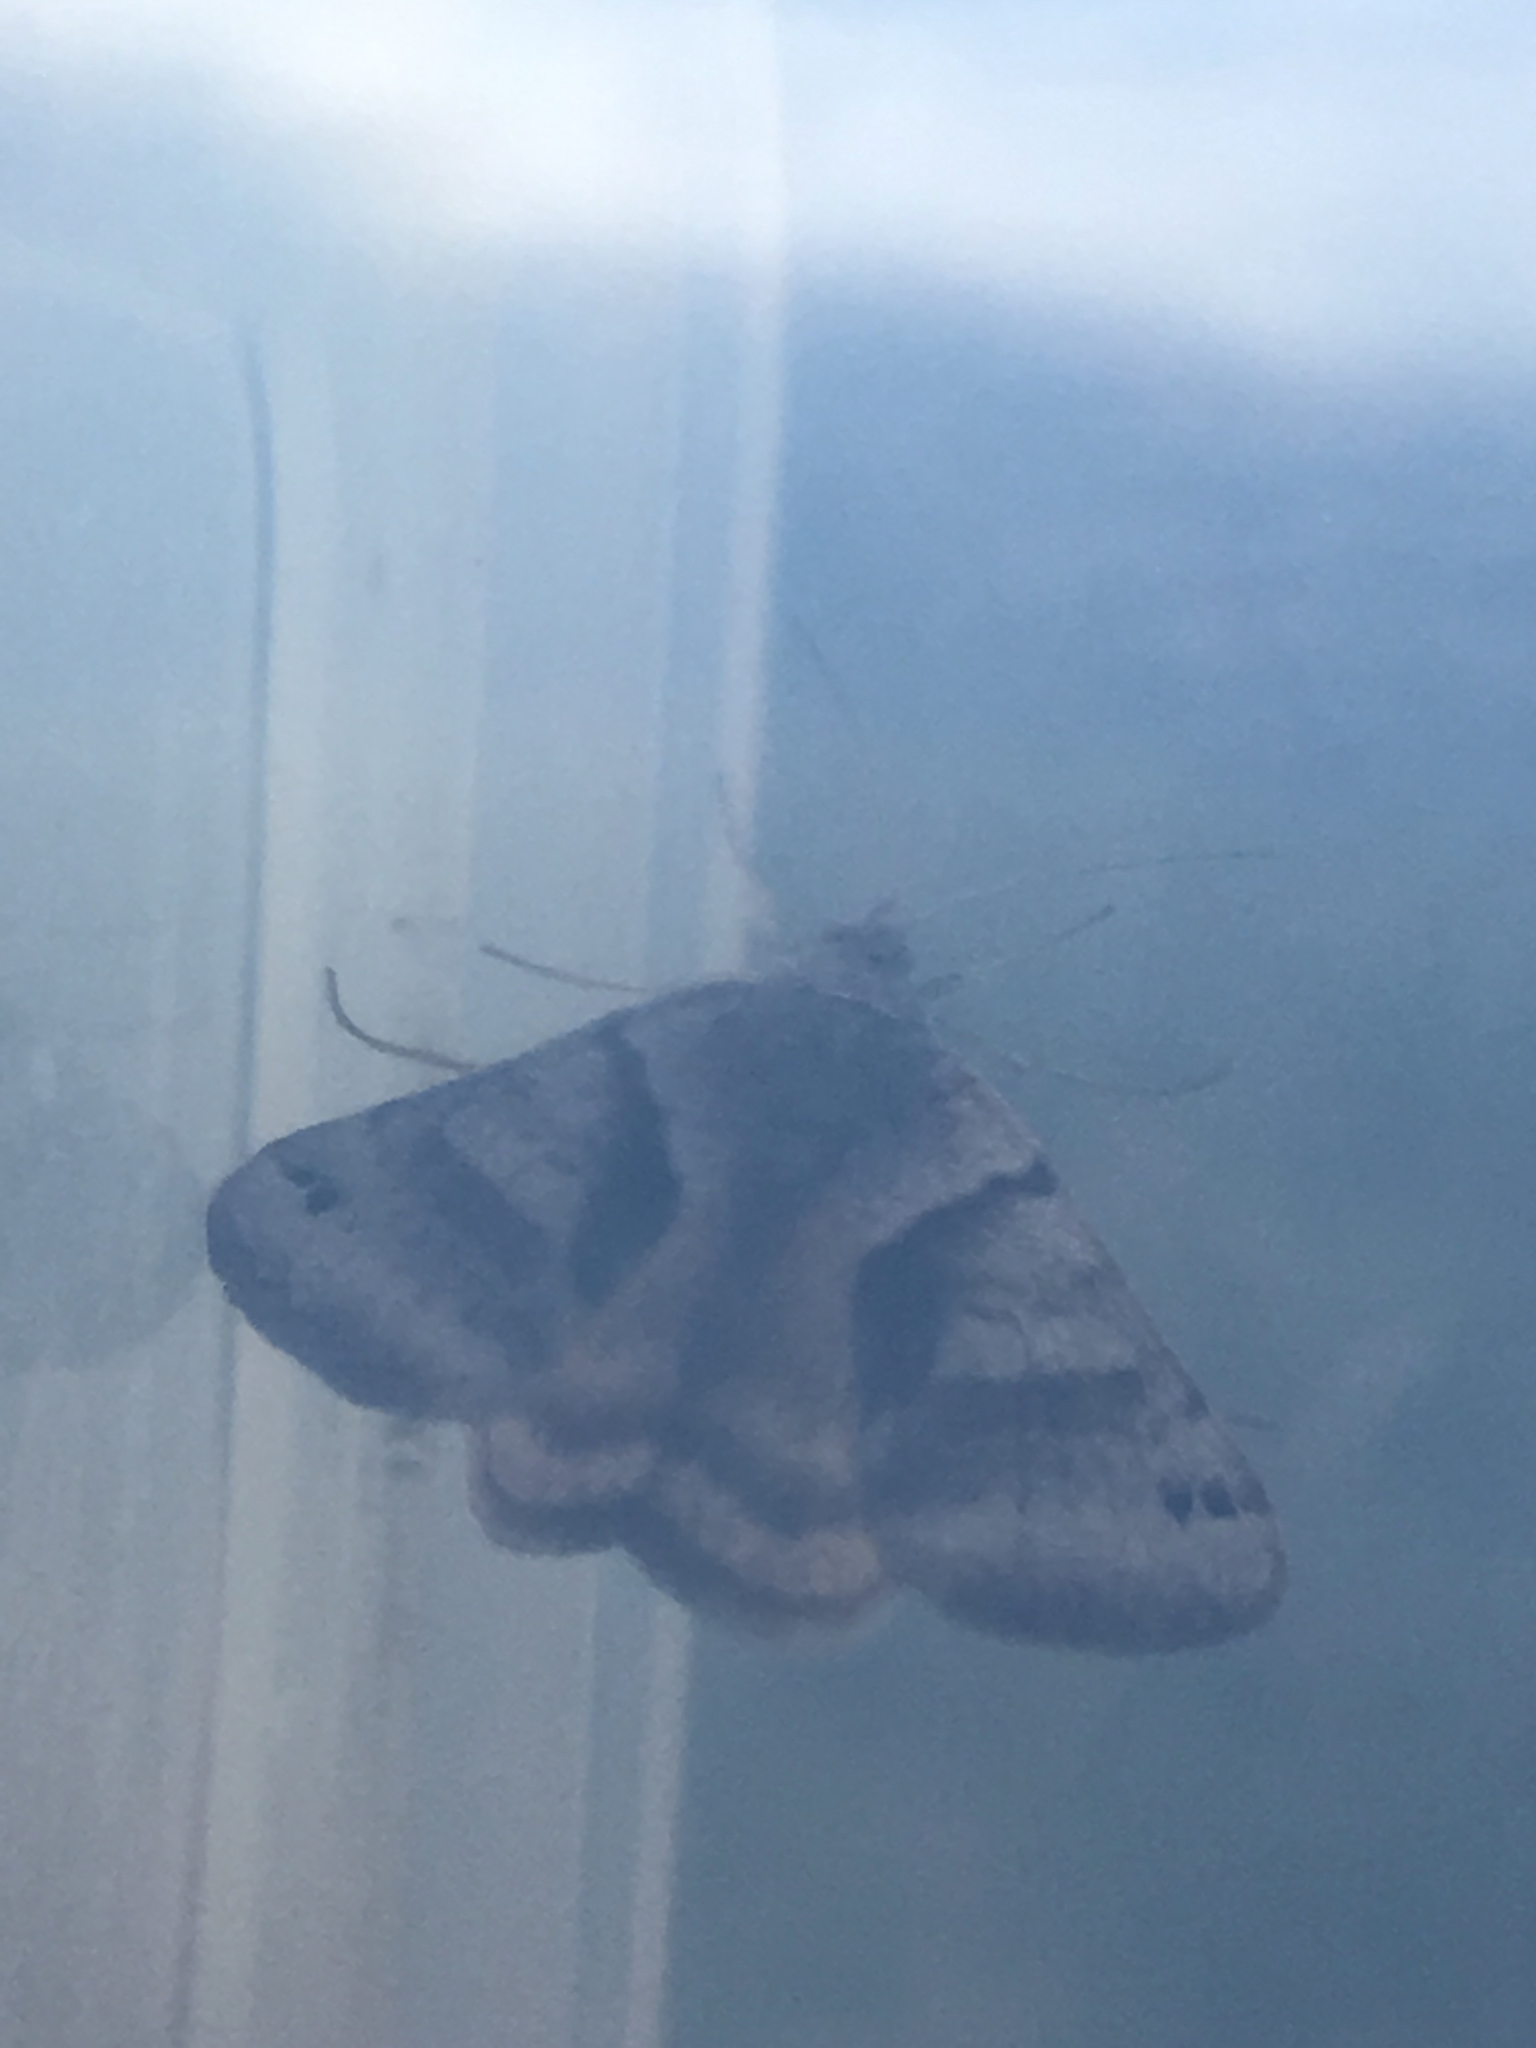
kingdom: Animalia
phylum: Arthropoda
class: Insecta
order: Lepidoptera
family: Erebidae
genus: Caenurgina
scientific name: Caenurgina crassiuscula
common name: Double-barred
